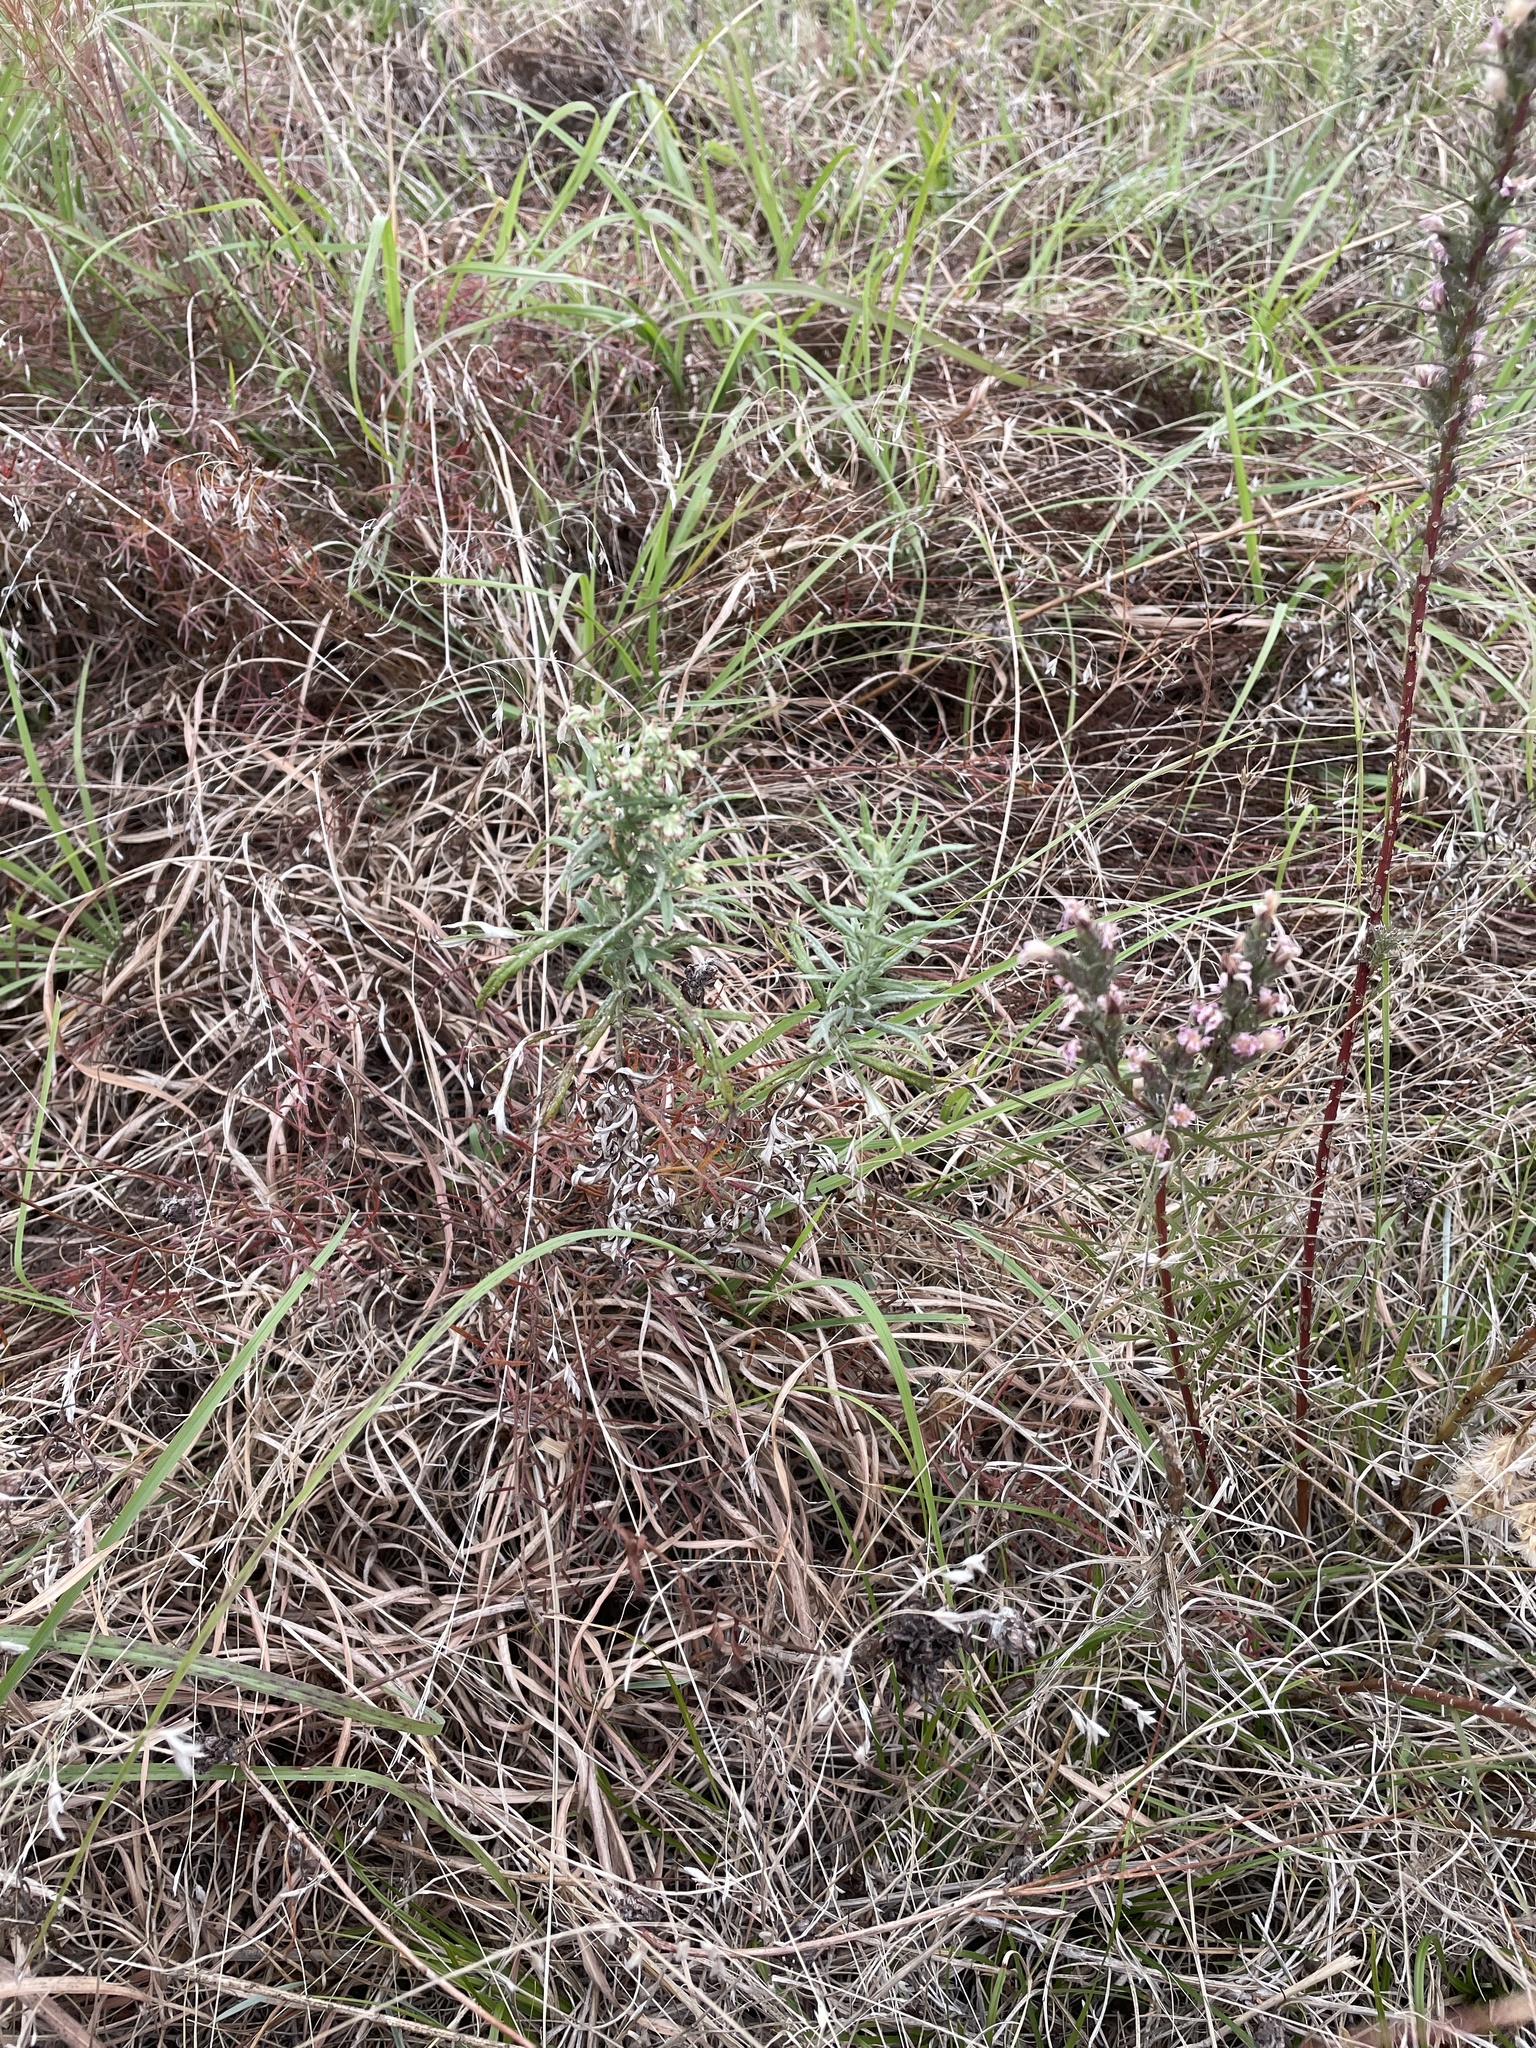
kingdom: Plantae
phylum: Tracheophyta
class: Magnoliopsida
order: Asterales
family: Asteraceae
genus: Artemisia
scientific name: Artemisia ludoviciana
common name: Western mugwort
